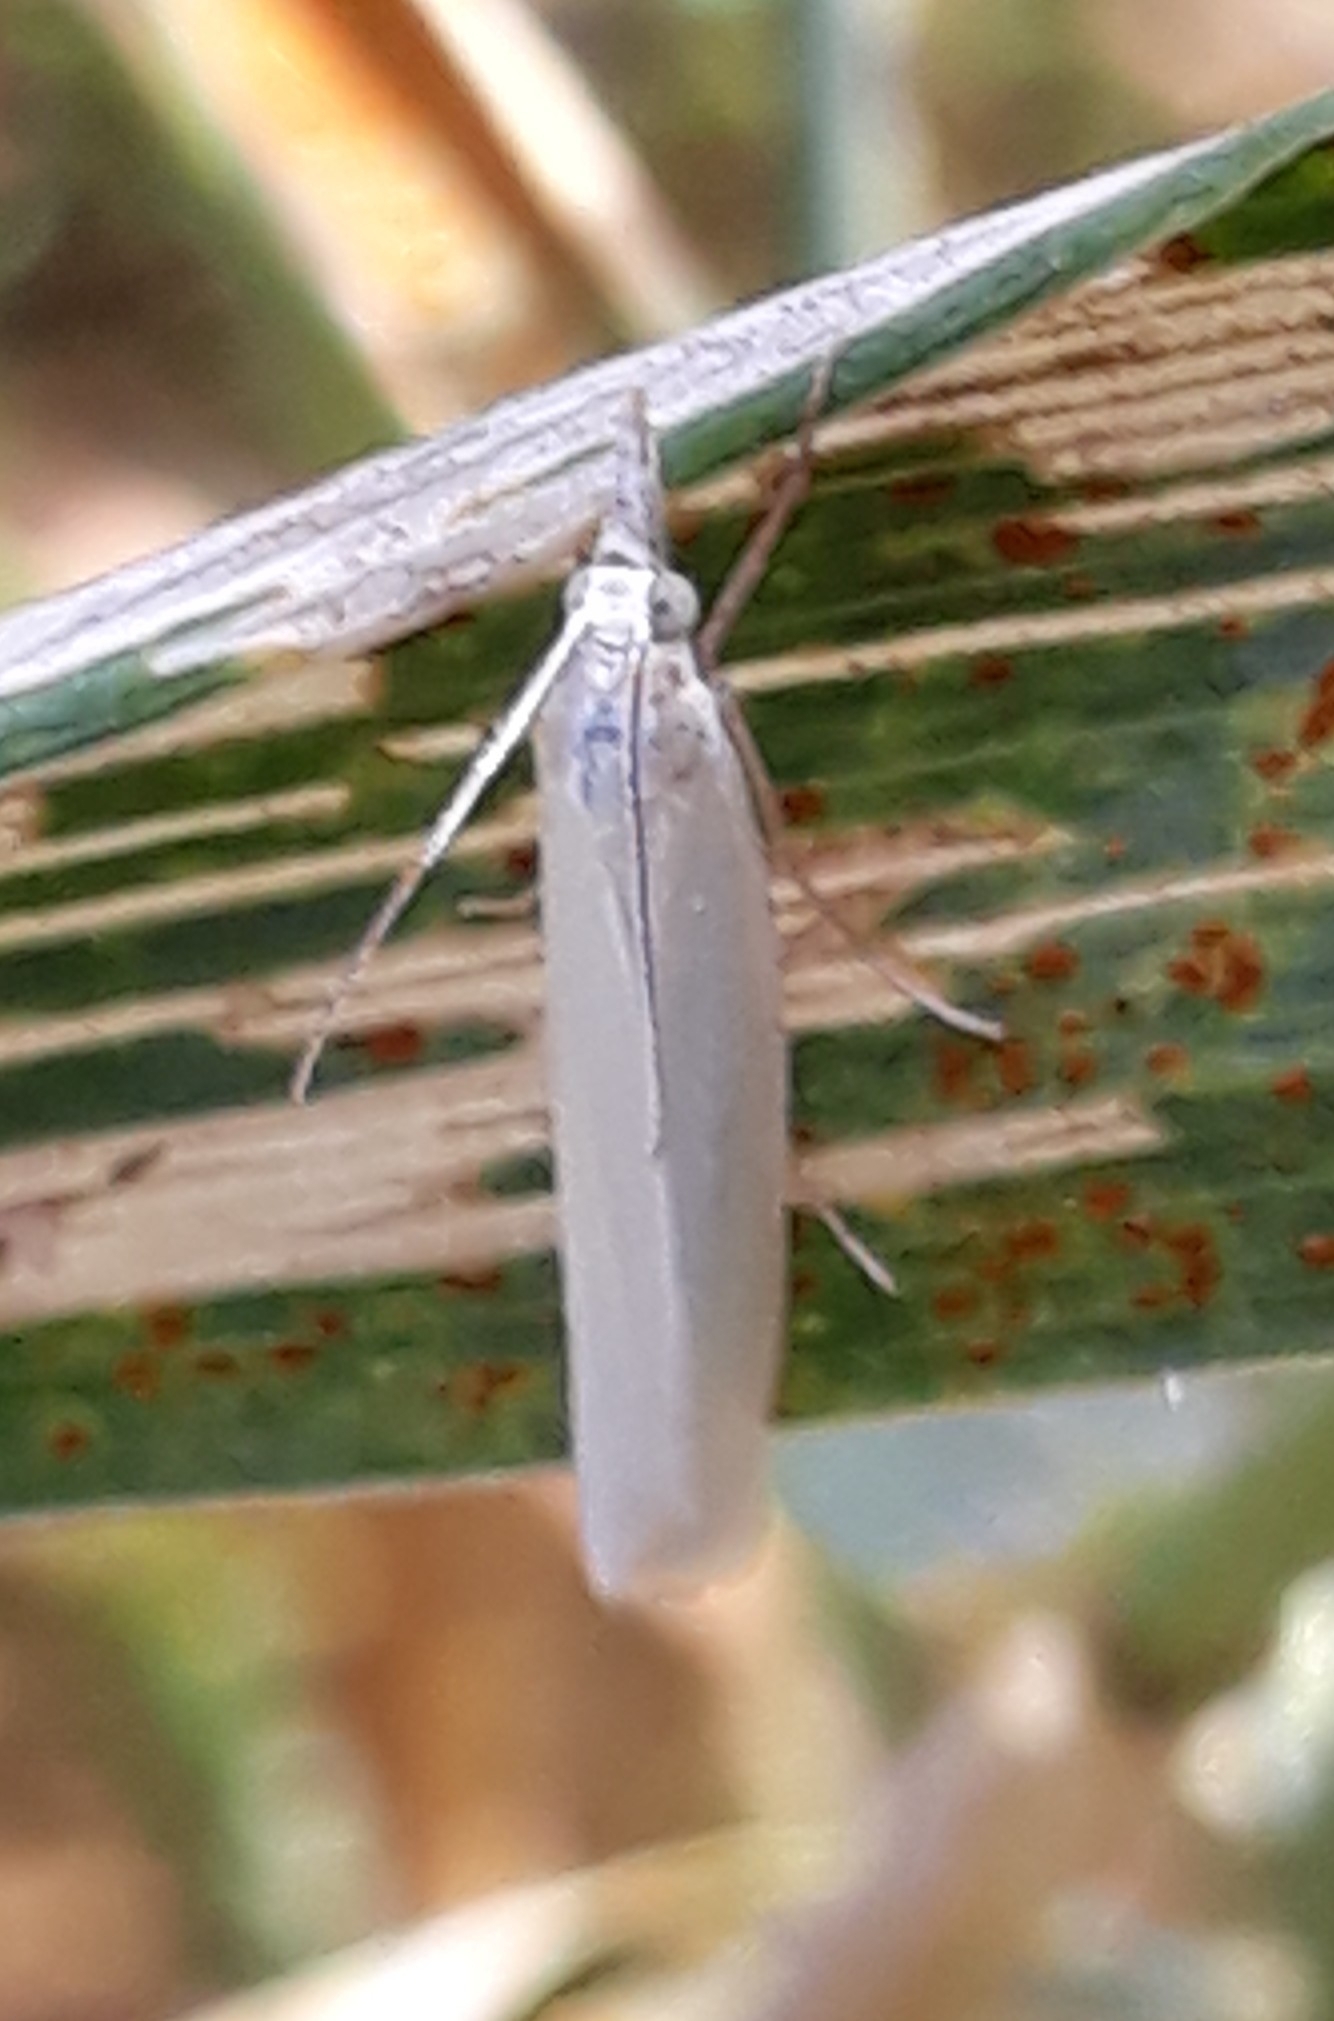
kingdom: Animalia
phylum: Arthropoda
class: Insecta
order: Lepidoptera
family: Crambidae
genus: Crambus
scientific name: Crambus perlellus
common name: Yellow satin veneer
